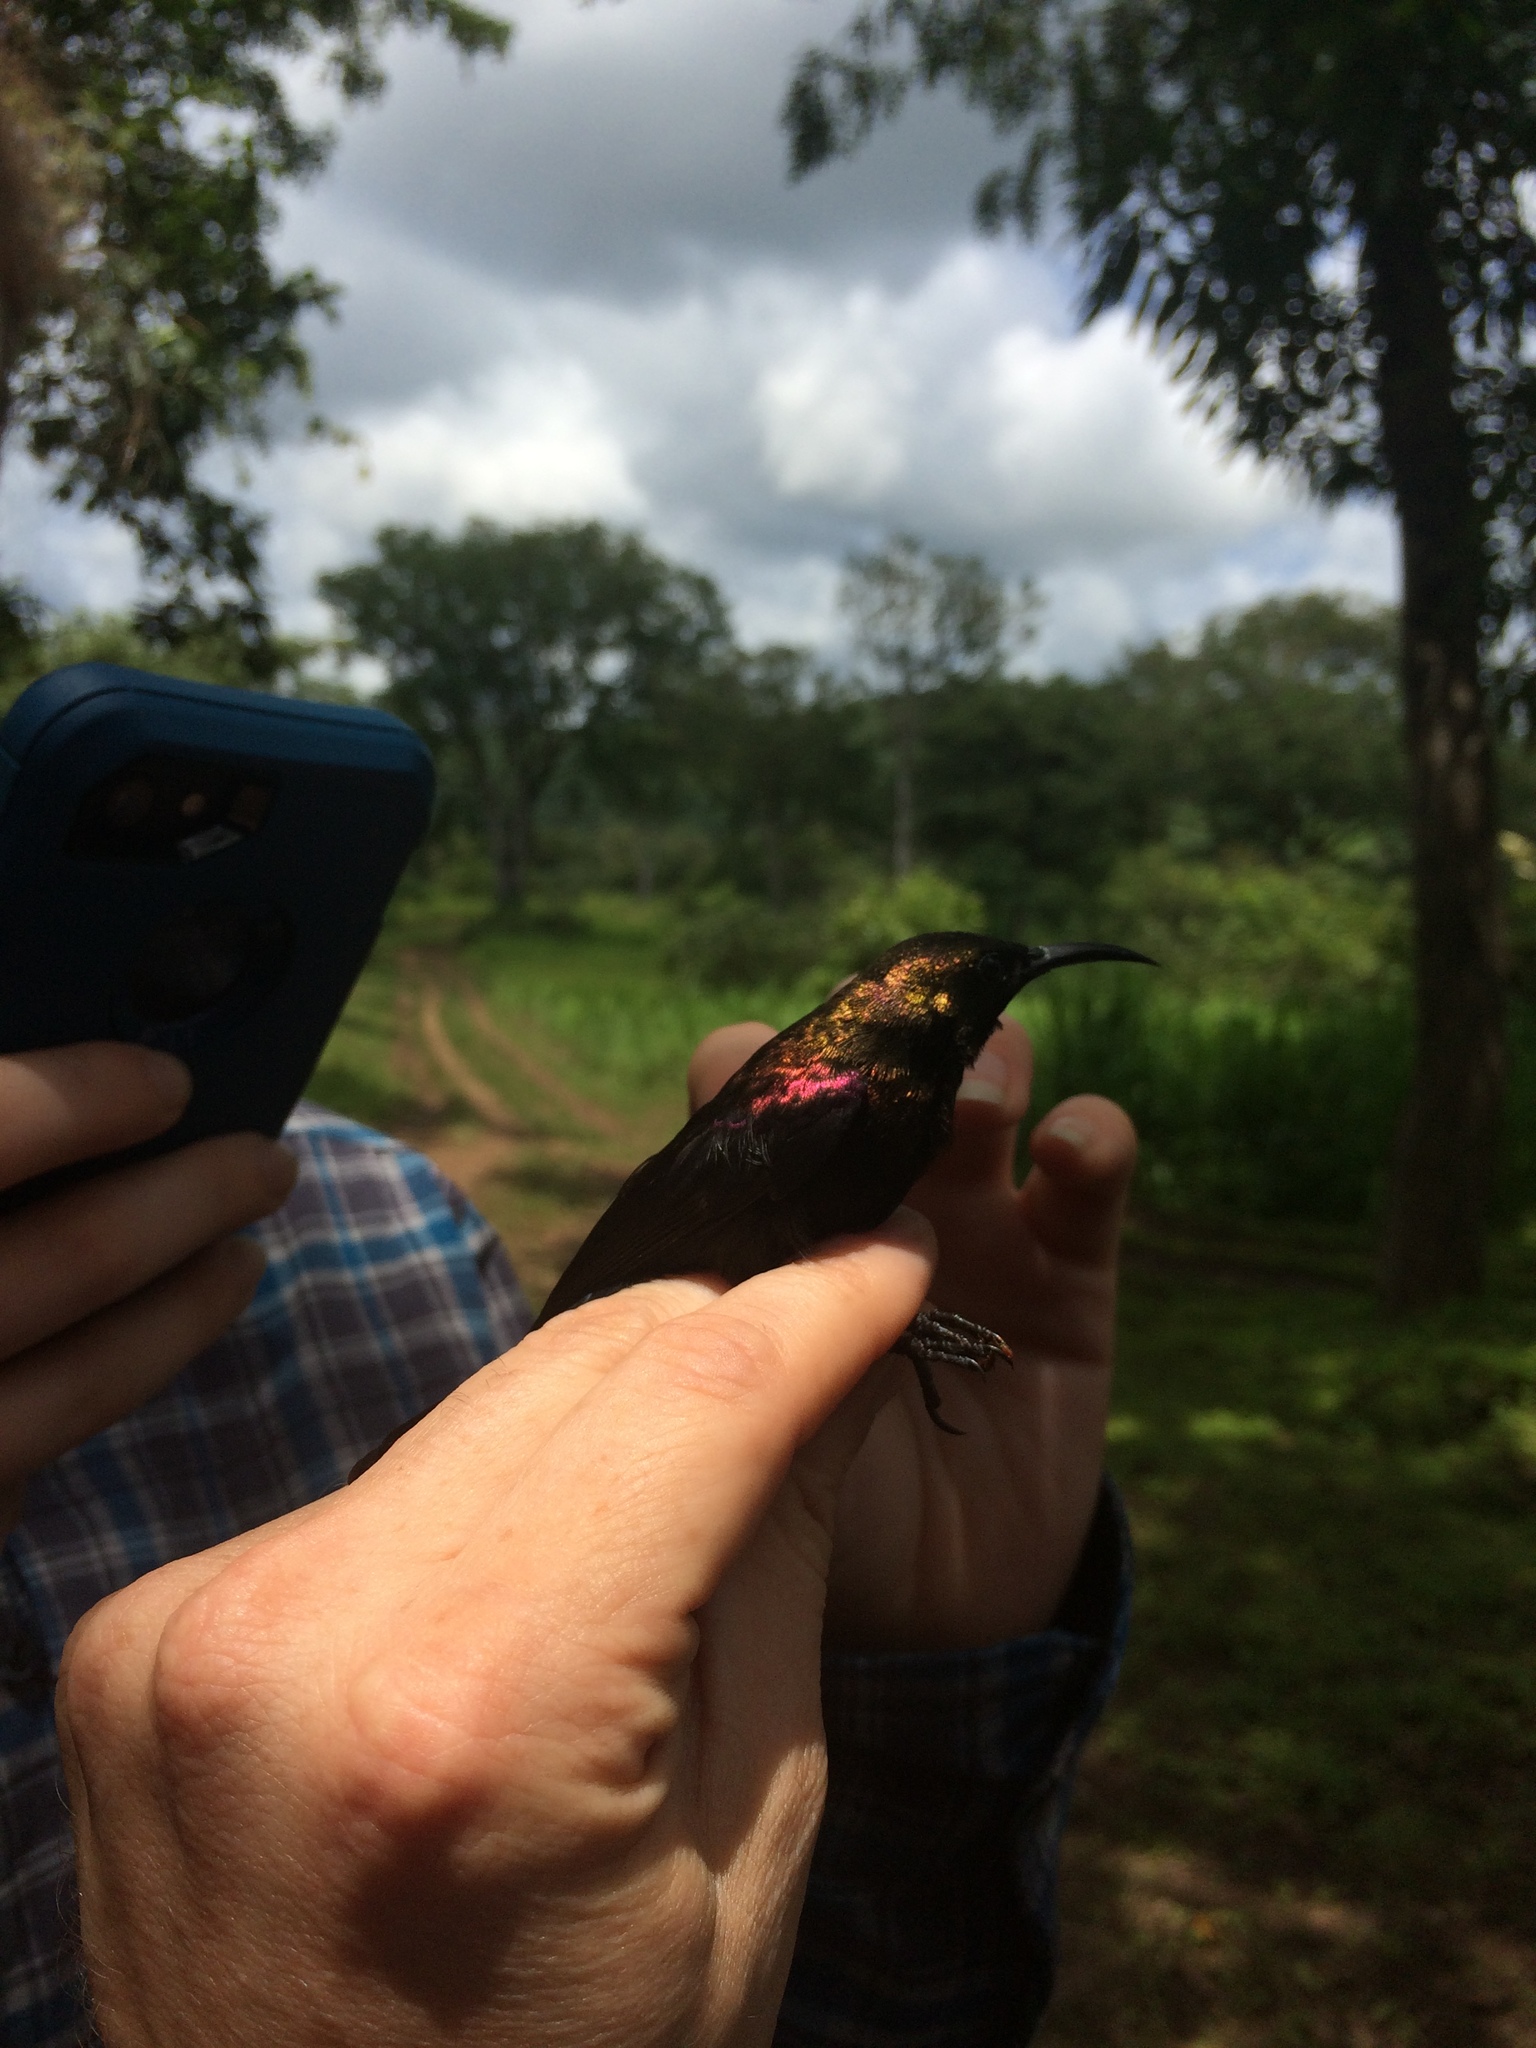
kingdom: Animalia
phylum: Chordata
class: Aves
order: Passeriformes
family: Nectariniidae
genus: Cinnyris
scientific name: Cinnyris cupreus
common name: Copper sunbird
